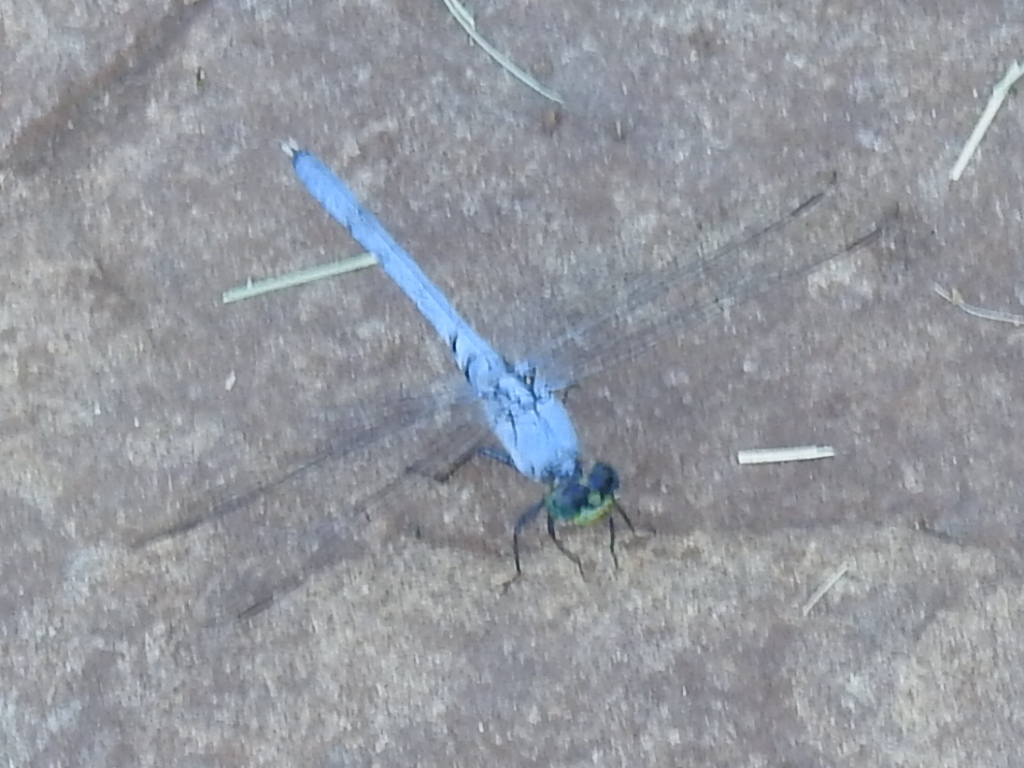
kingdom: Animalia
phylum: Arthropoda
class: Insecta
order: Odonata
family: Libellulidae
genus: Erythemis
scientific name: Erythemis simplicicollis
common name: Eastern pondhawk
